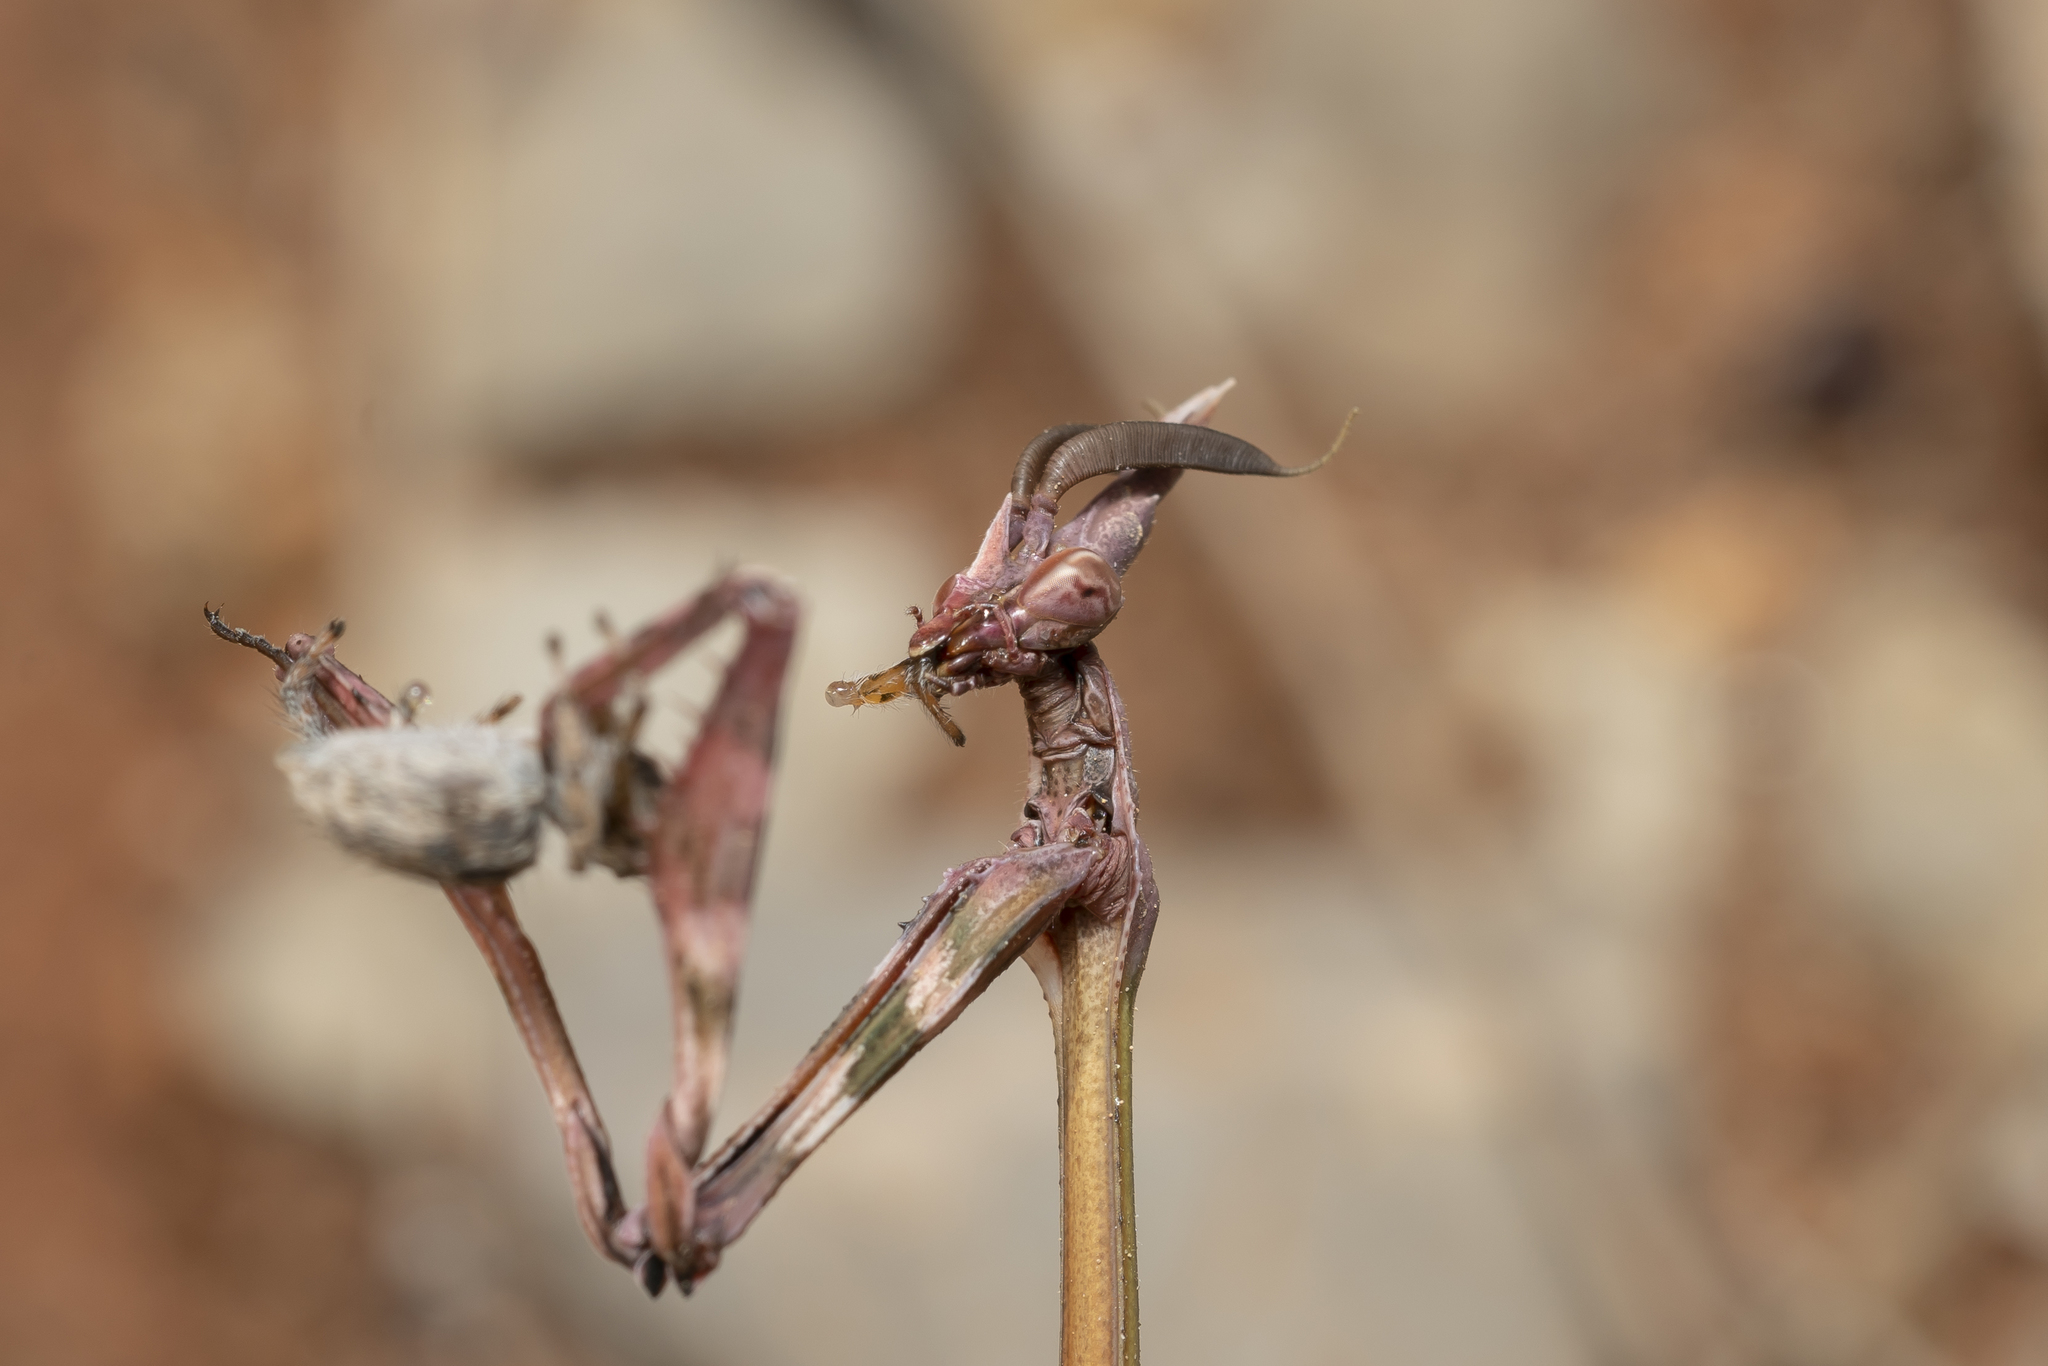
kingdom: Animalia
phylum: Arthropoda
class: Insecta
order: Mantodea
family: Empusidae
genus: Empusa
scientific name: Empusa fasciata
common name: Devil's mare
